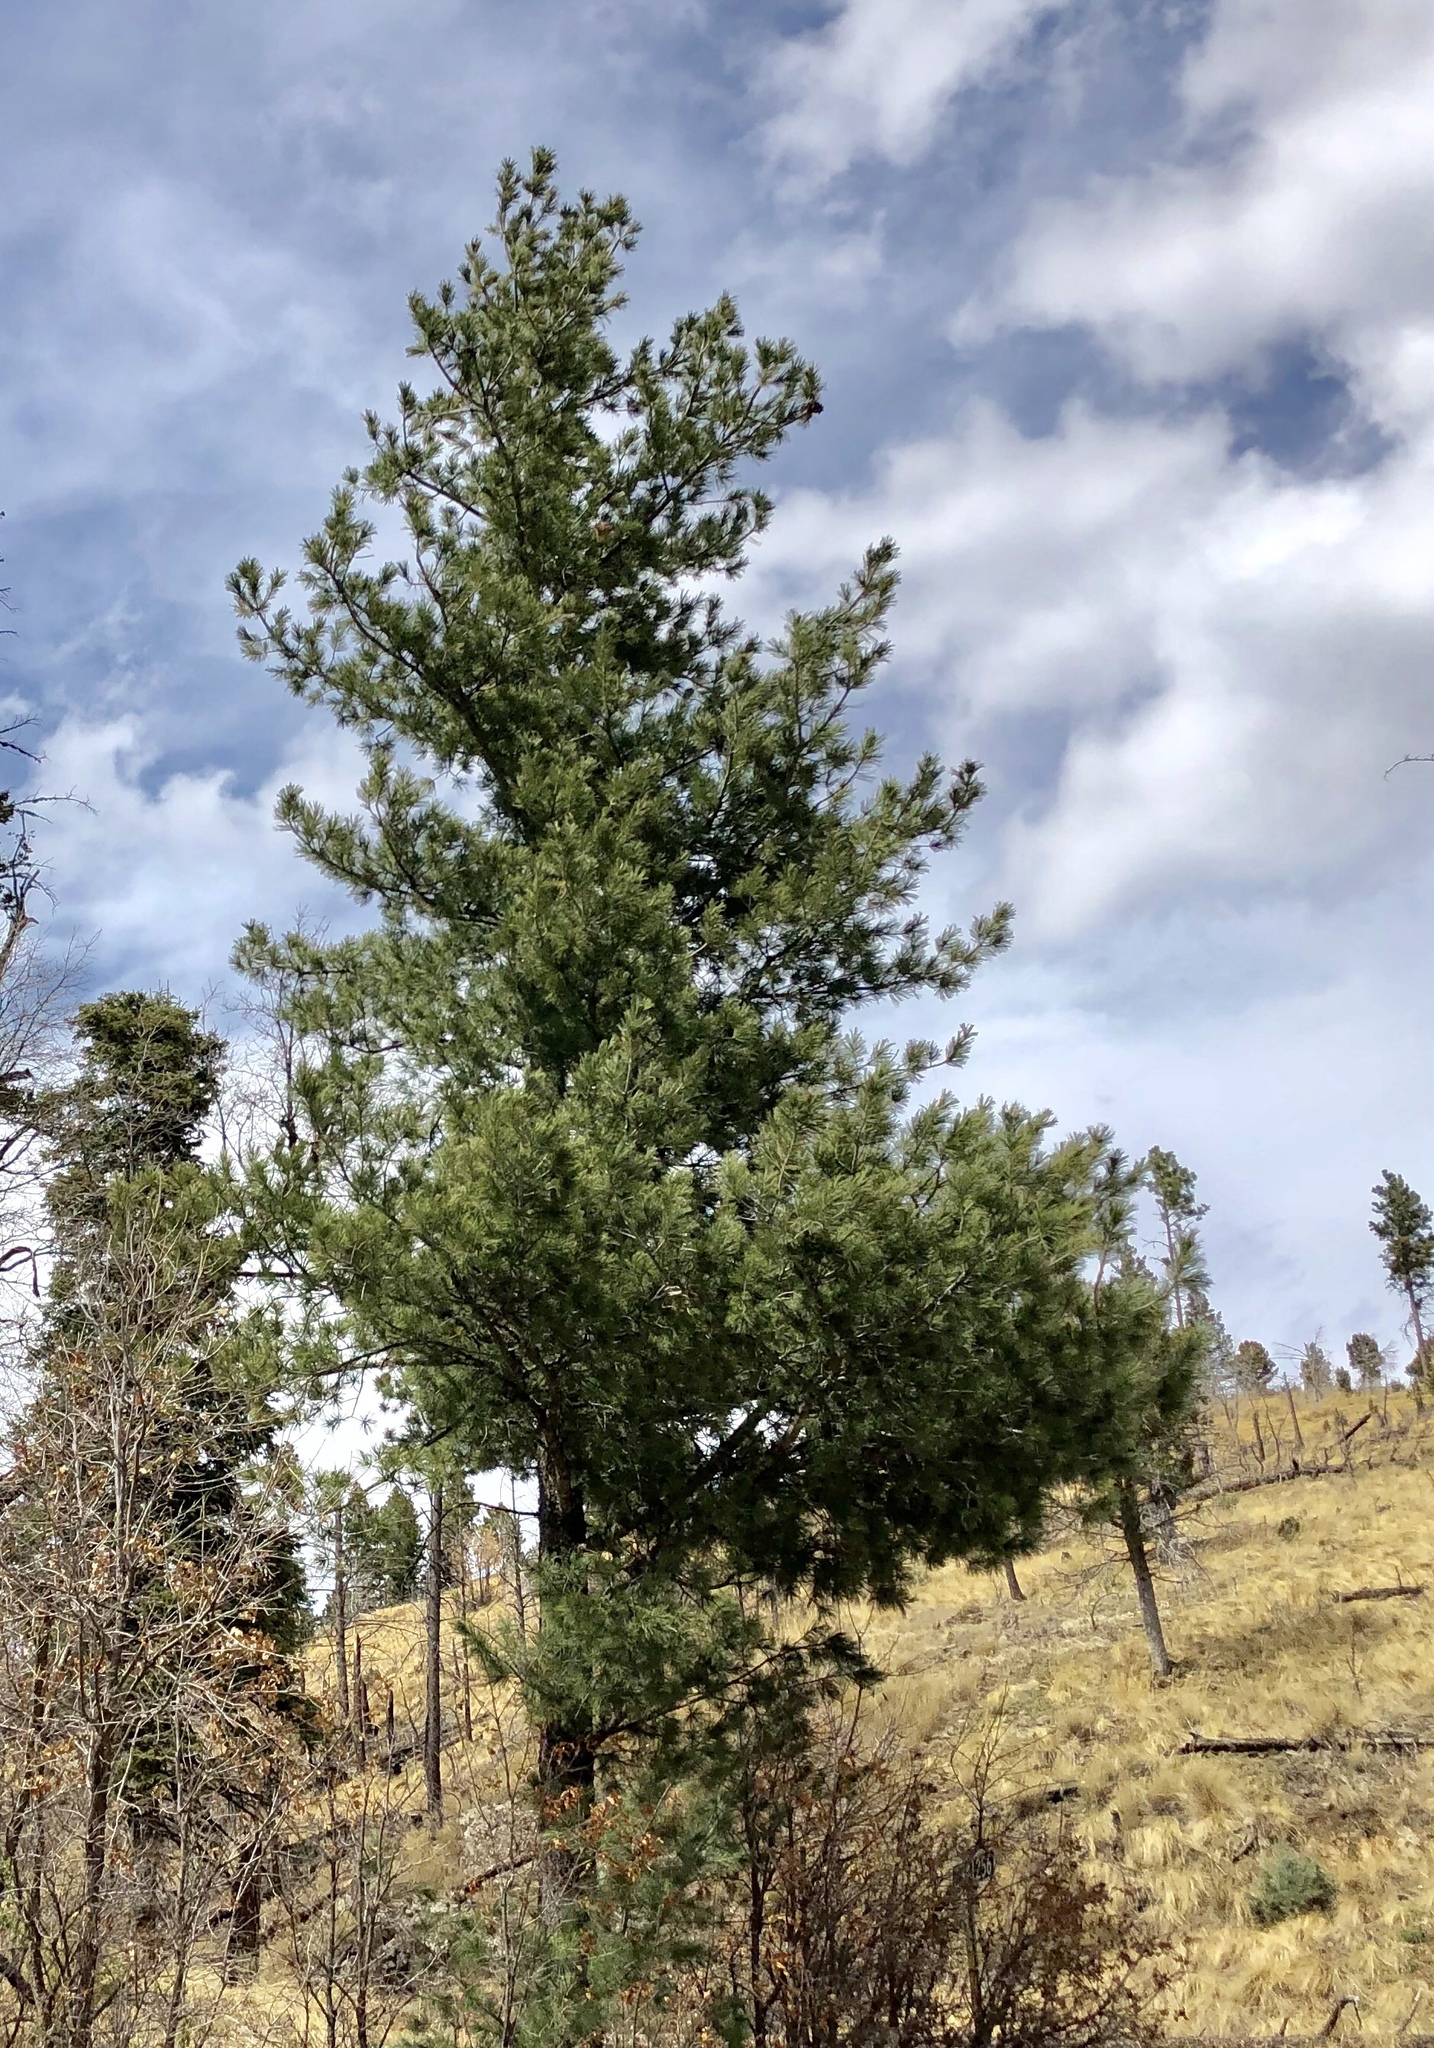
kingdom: Plantae
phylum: Tracheophyta
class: Pinopsida
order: Pinales
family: Pinaceae
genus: Pinus
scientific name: Pinus ponderosa
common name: Western yellow-pine
